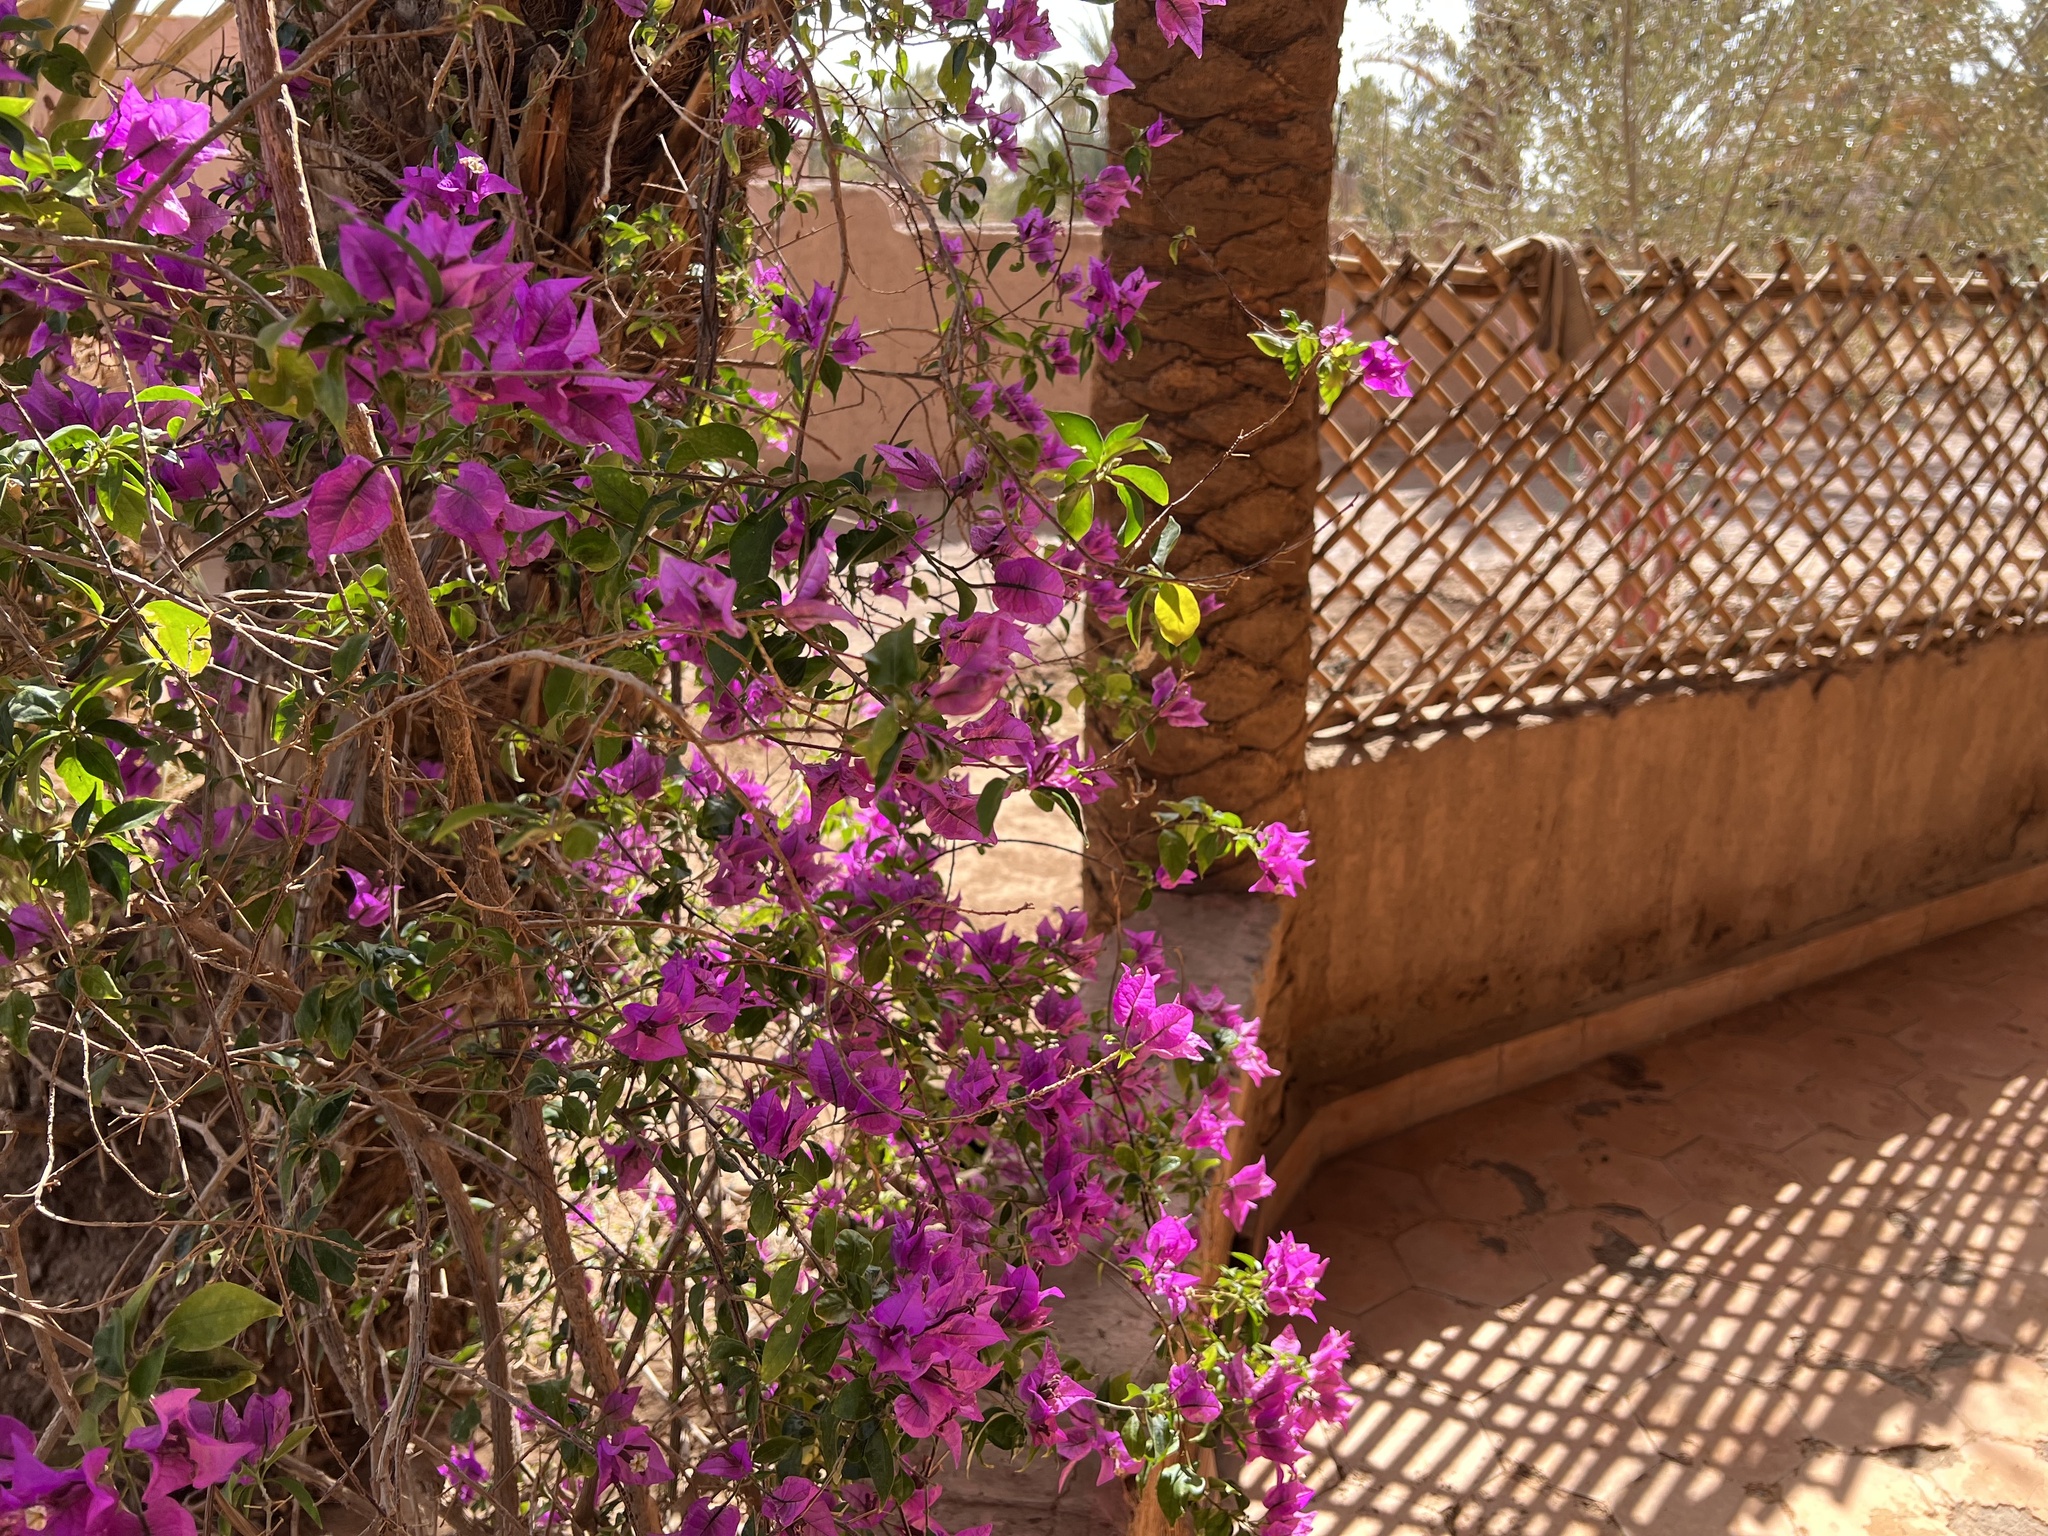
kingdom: Plantae
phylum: Tracheophyta
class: Magnoliopsida
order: Caryophyllales
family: Nyctaginaceae
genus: Bougainvillea
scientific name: Bougainvillea glabra
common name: Paperflower
